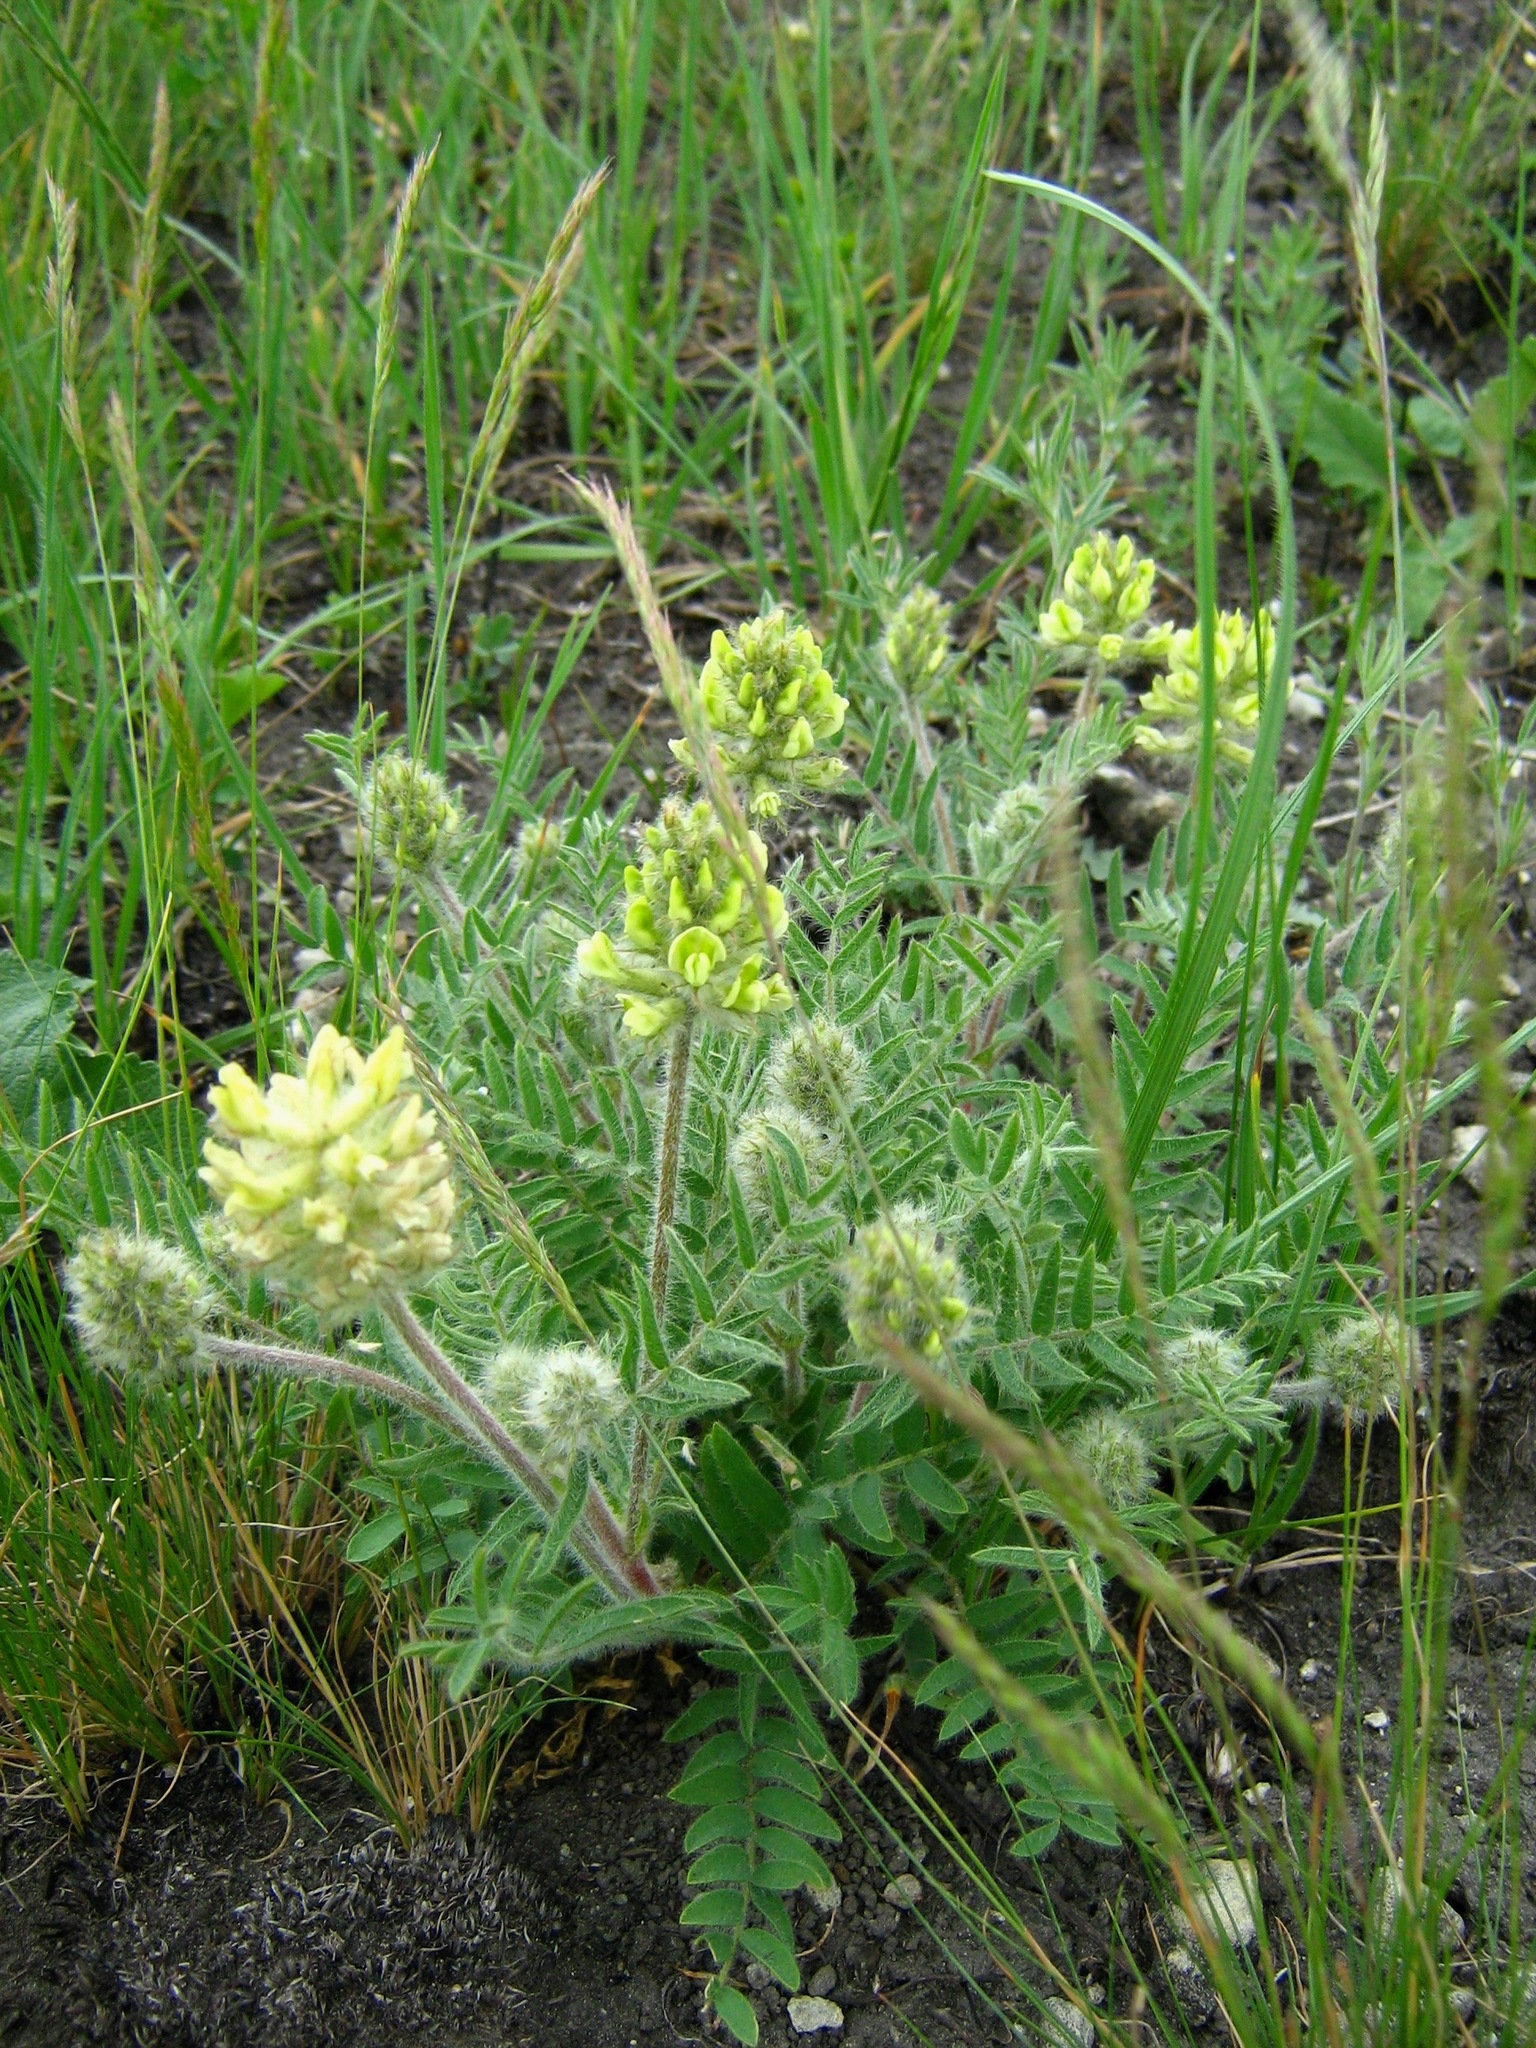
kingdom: Plantae
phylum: Tracheophyta
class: Magnoliopsida
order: Fabales
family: Fabaceae
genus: Oxytropis
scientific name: Oxytropis pilosa
